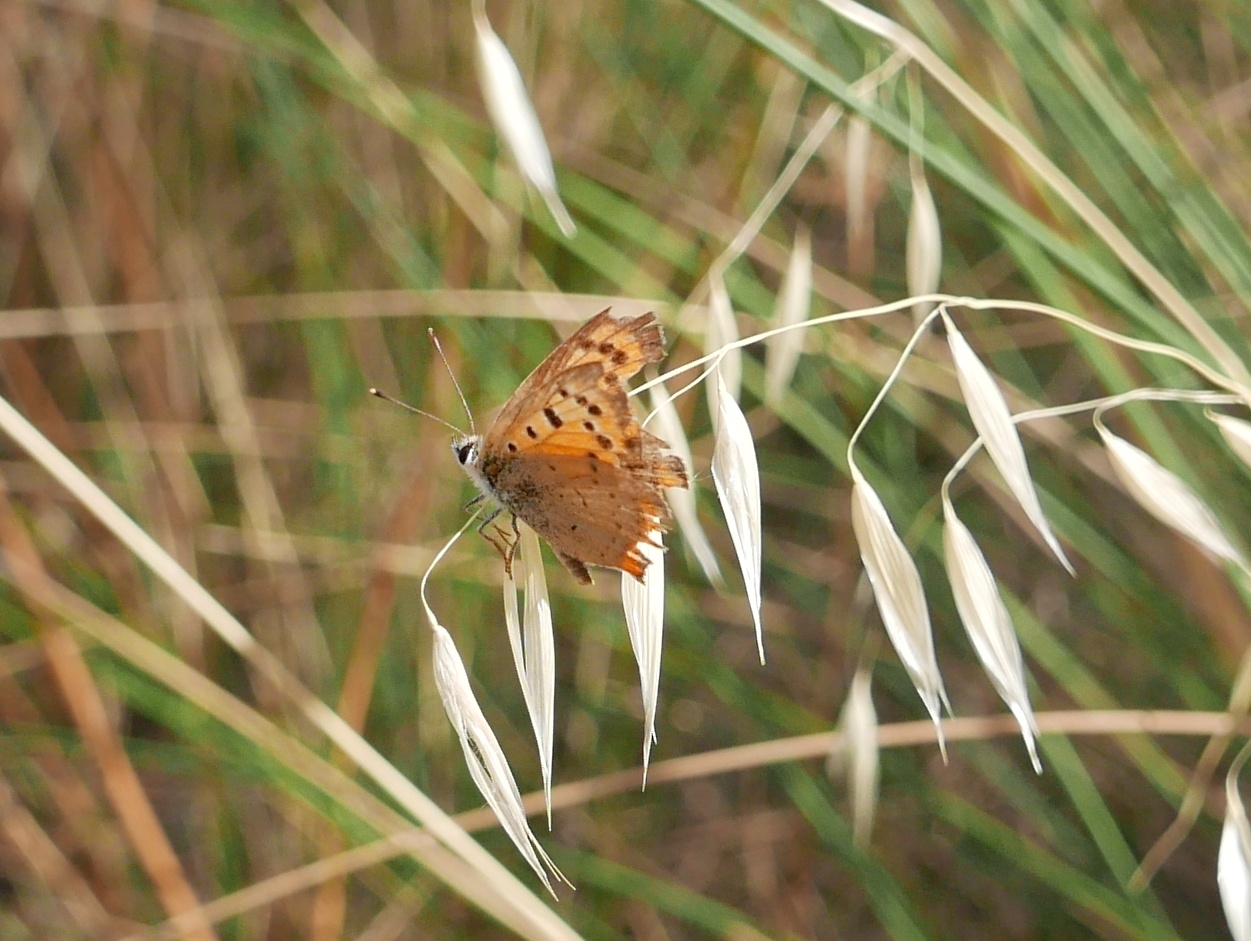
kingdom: Animalia
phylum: Arthropoda
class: Insecta
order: Lepidoptera
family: Lycaenidae
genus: Lycaena
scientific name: Lycaena phlaeas
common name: Small copper
